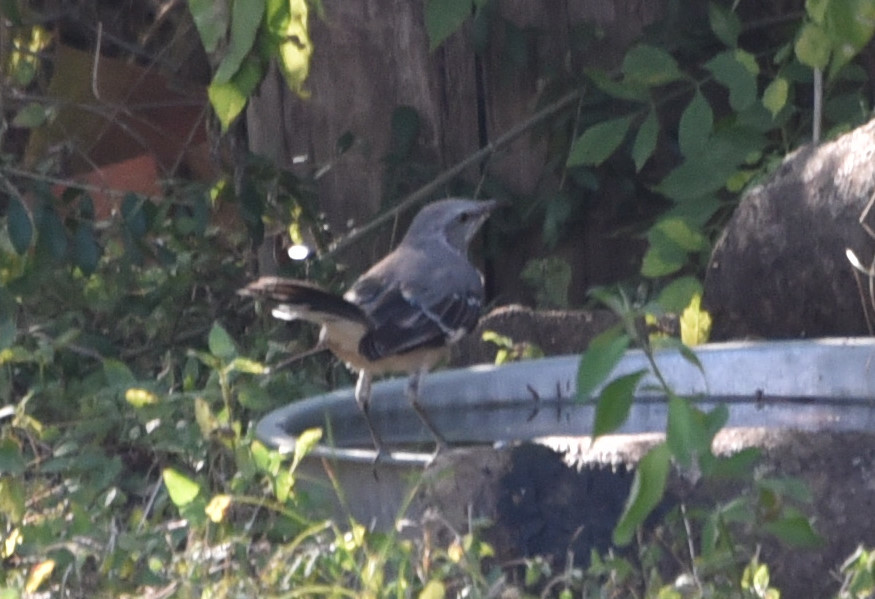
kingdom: Animalia
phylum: Chordata
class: Aves
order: Passeriformes
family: Mimidae
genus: Mimus
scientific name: Mimus polyglottos
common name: Northern mockingbird
